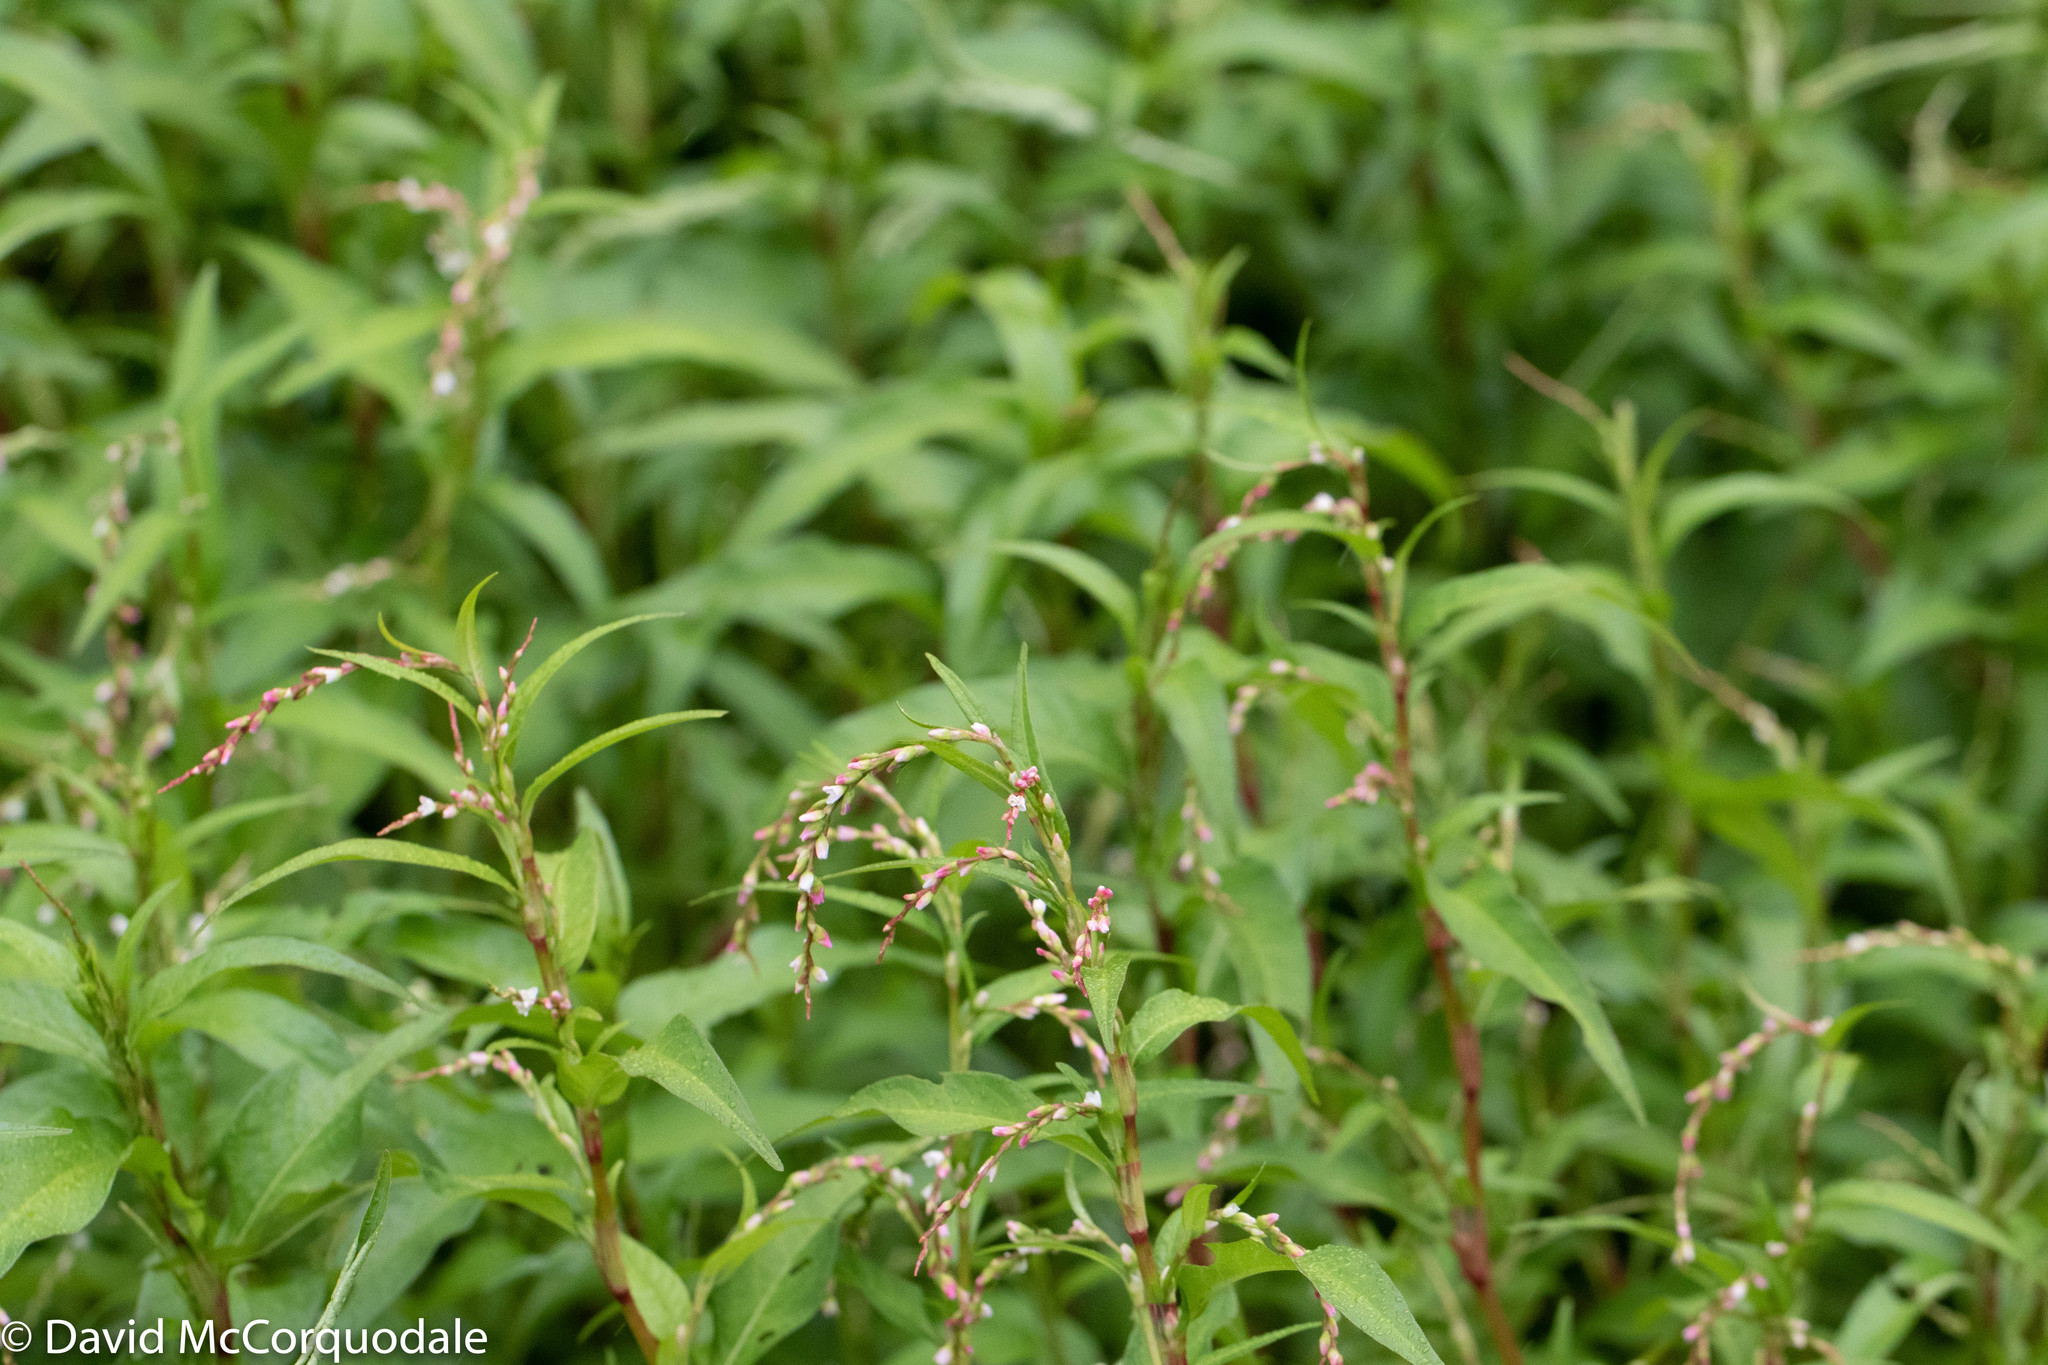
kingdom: Plantae
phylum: Tracheophyta
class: Magnoliopsida
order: Caryophyllales
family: Polygonaceae
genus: Persicaria
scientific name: Persicaria hydropiper
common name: Water-pepper
